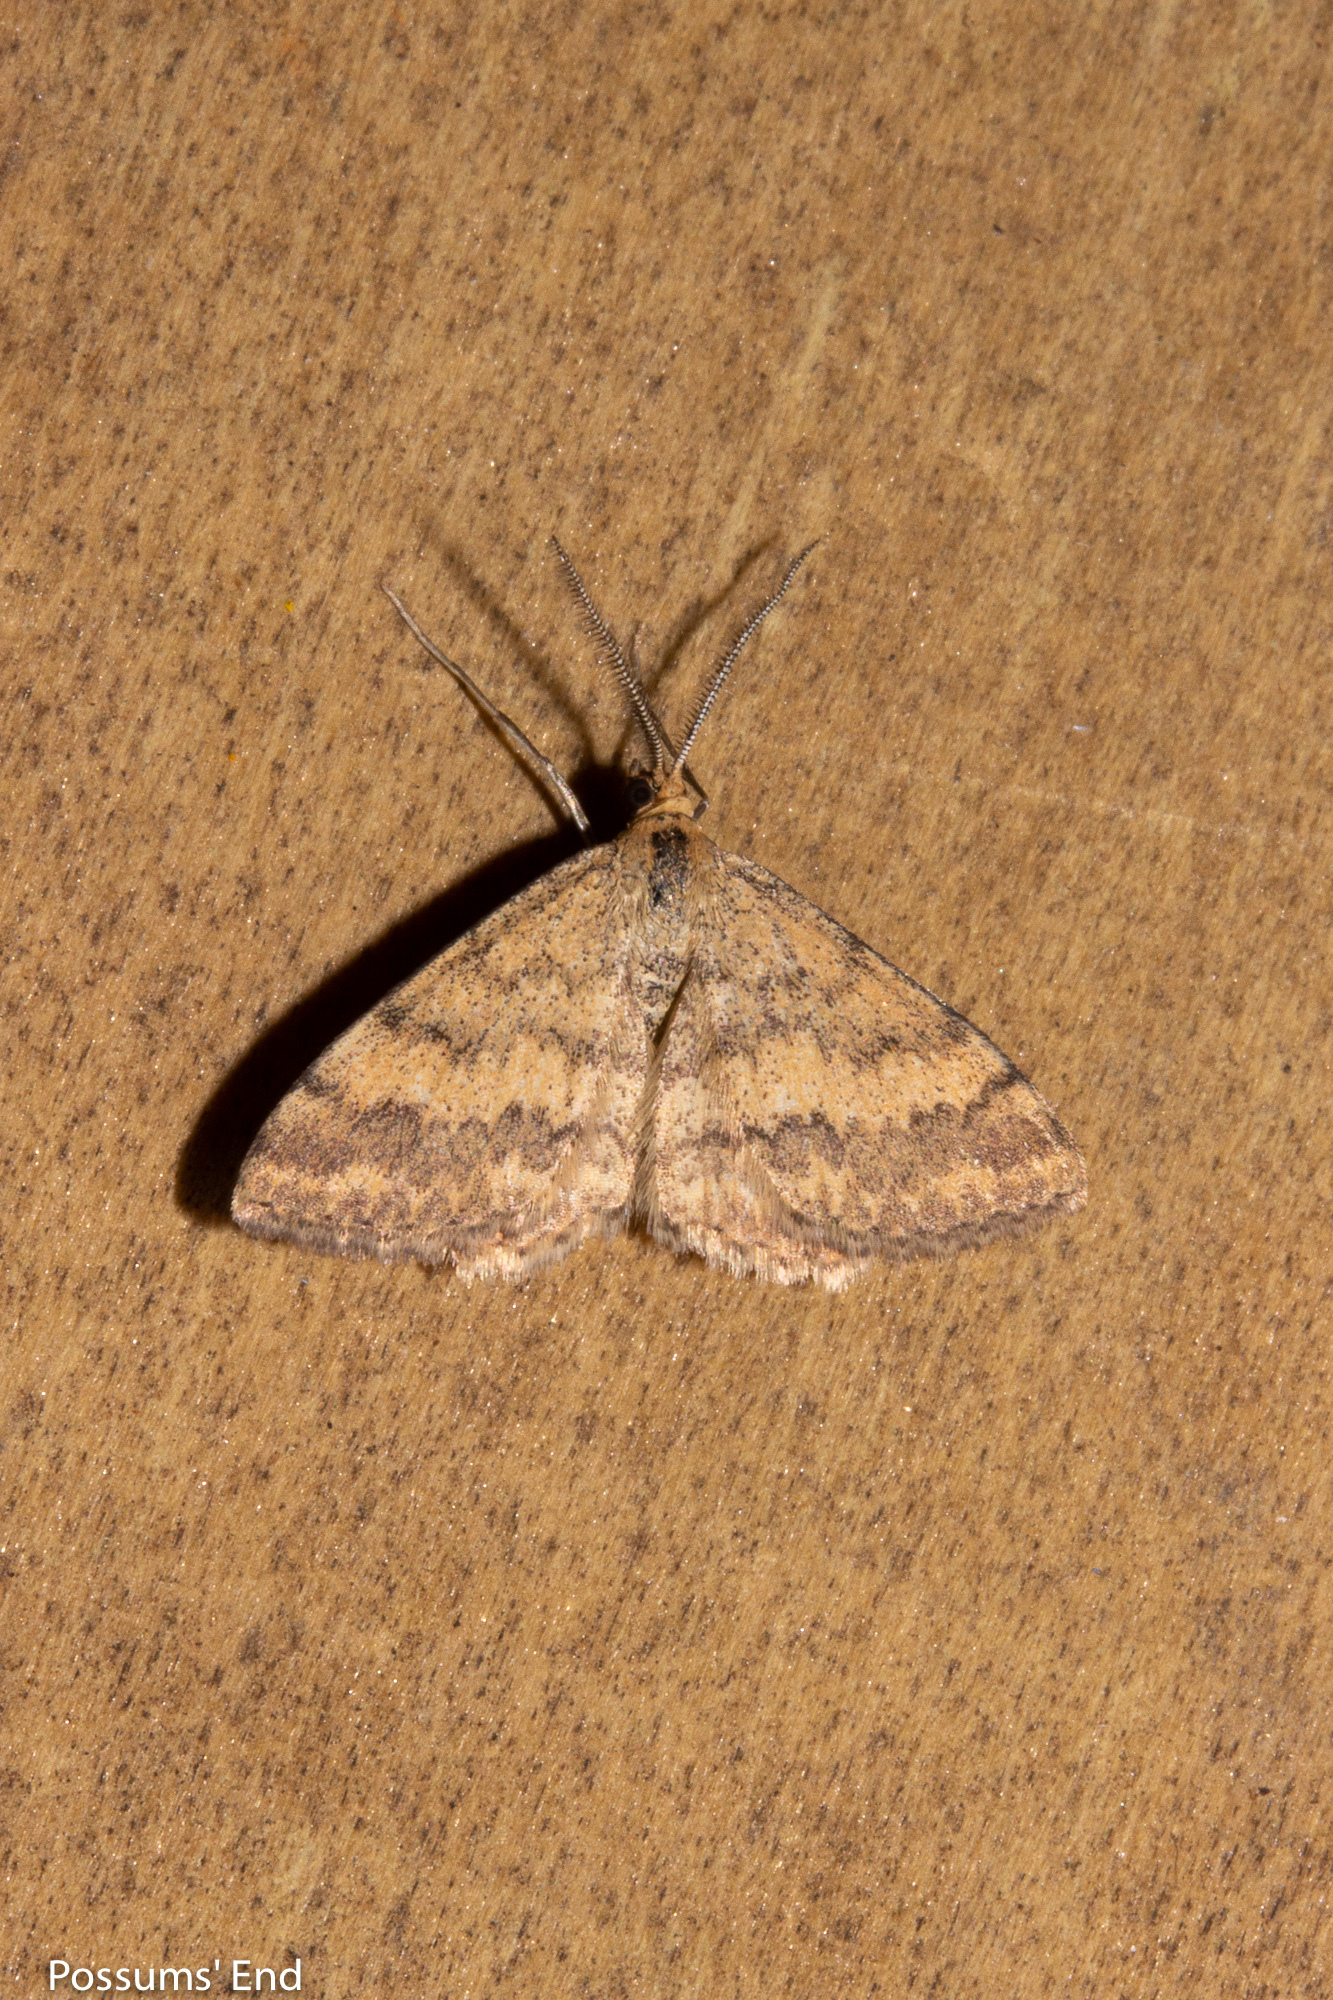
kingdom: Animalia
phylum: Arthropoda
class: Insecta
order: Lepidoptera
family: Geometridae
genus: Scopula
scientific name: Scopula rubraria
